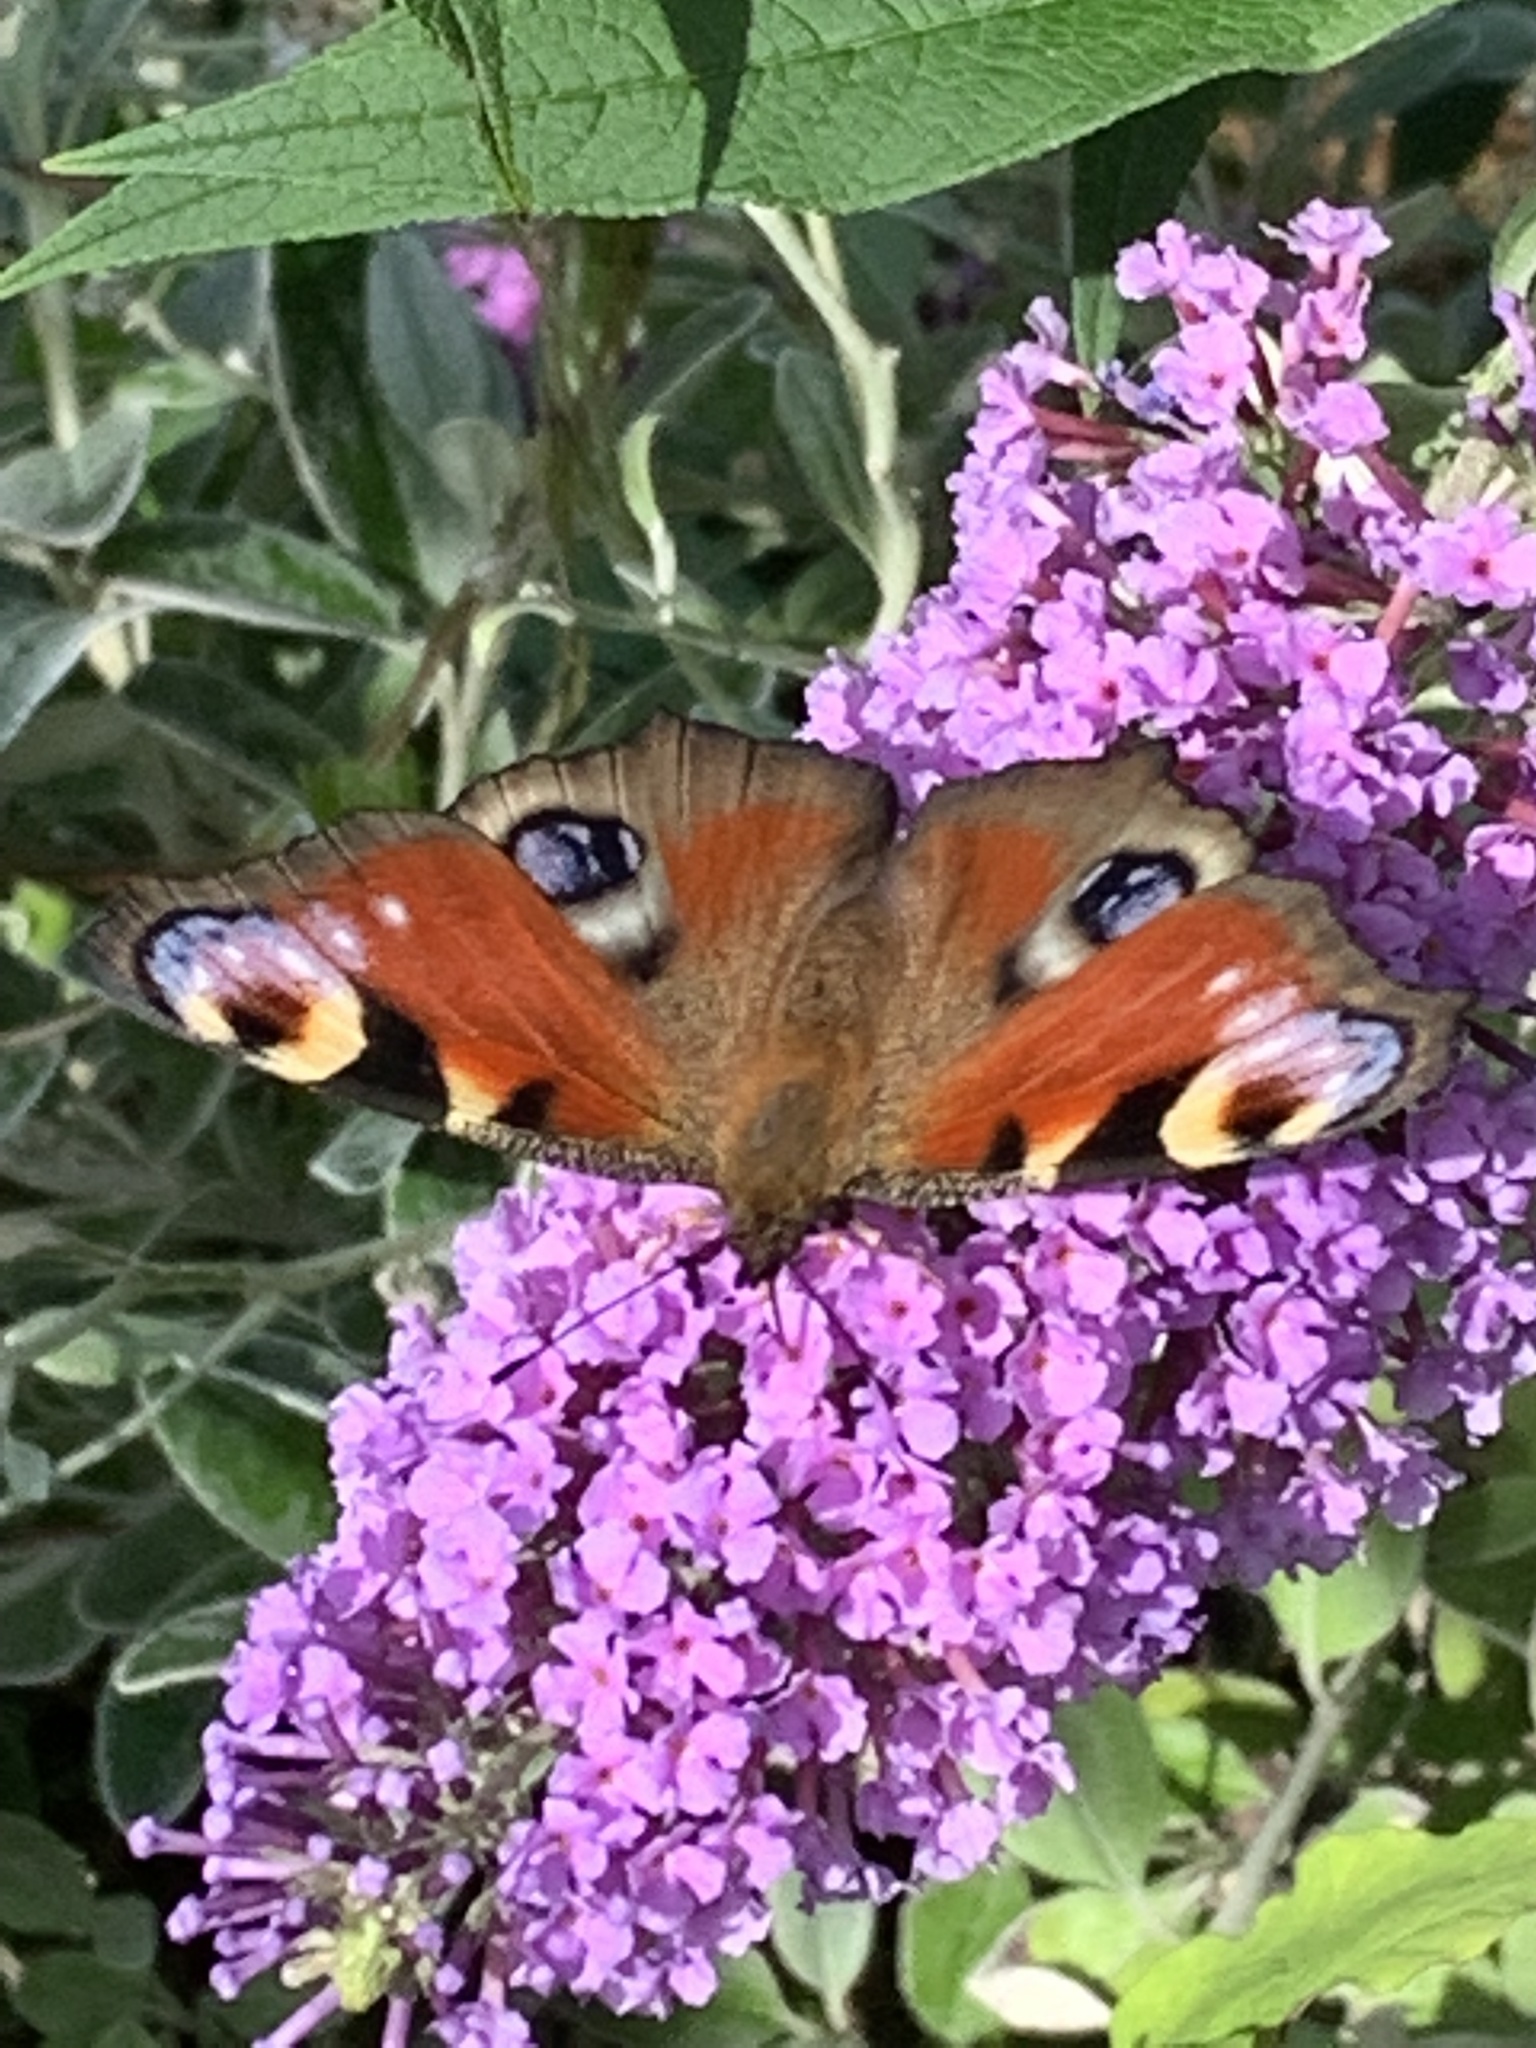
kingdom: Animalia
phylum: Arthropoda
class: Insecta
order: Lepidoptera
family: Nymphalidae
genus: Aglais
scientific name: Aglais io
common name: Peacock
